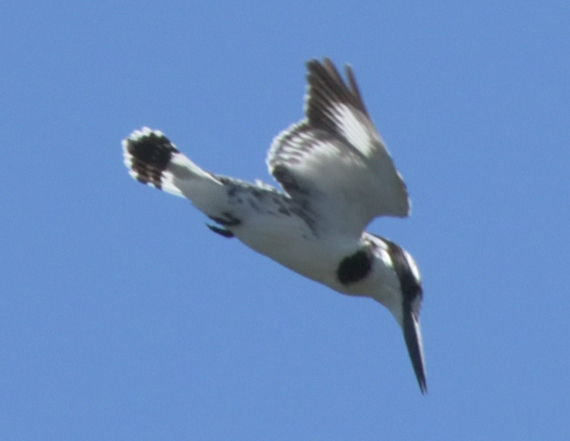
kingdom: Animalia
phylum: Chordata
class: Aves
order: Coraciiformes
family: Alcedinidae
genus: Ceryle
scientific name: Ceryle rudis
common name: Pied kingfisher
